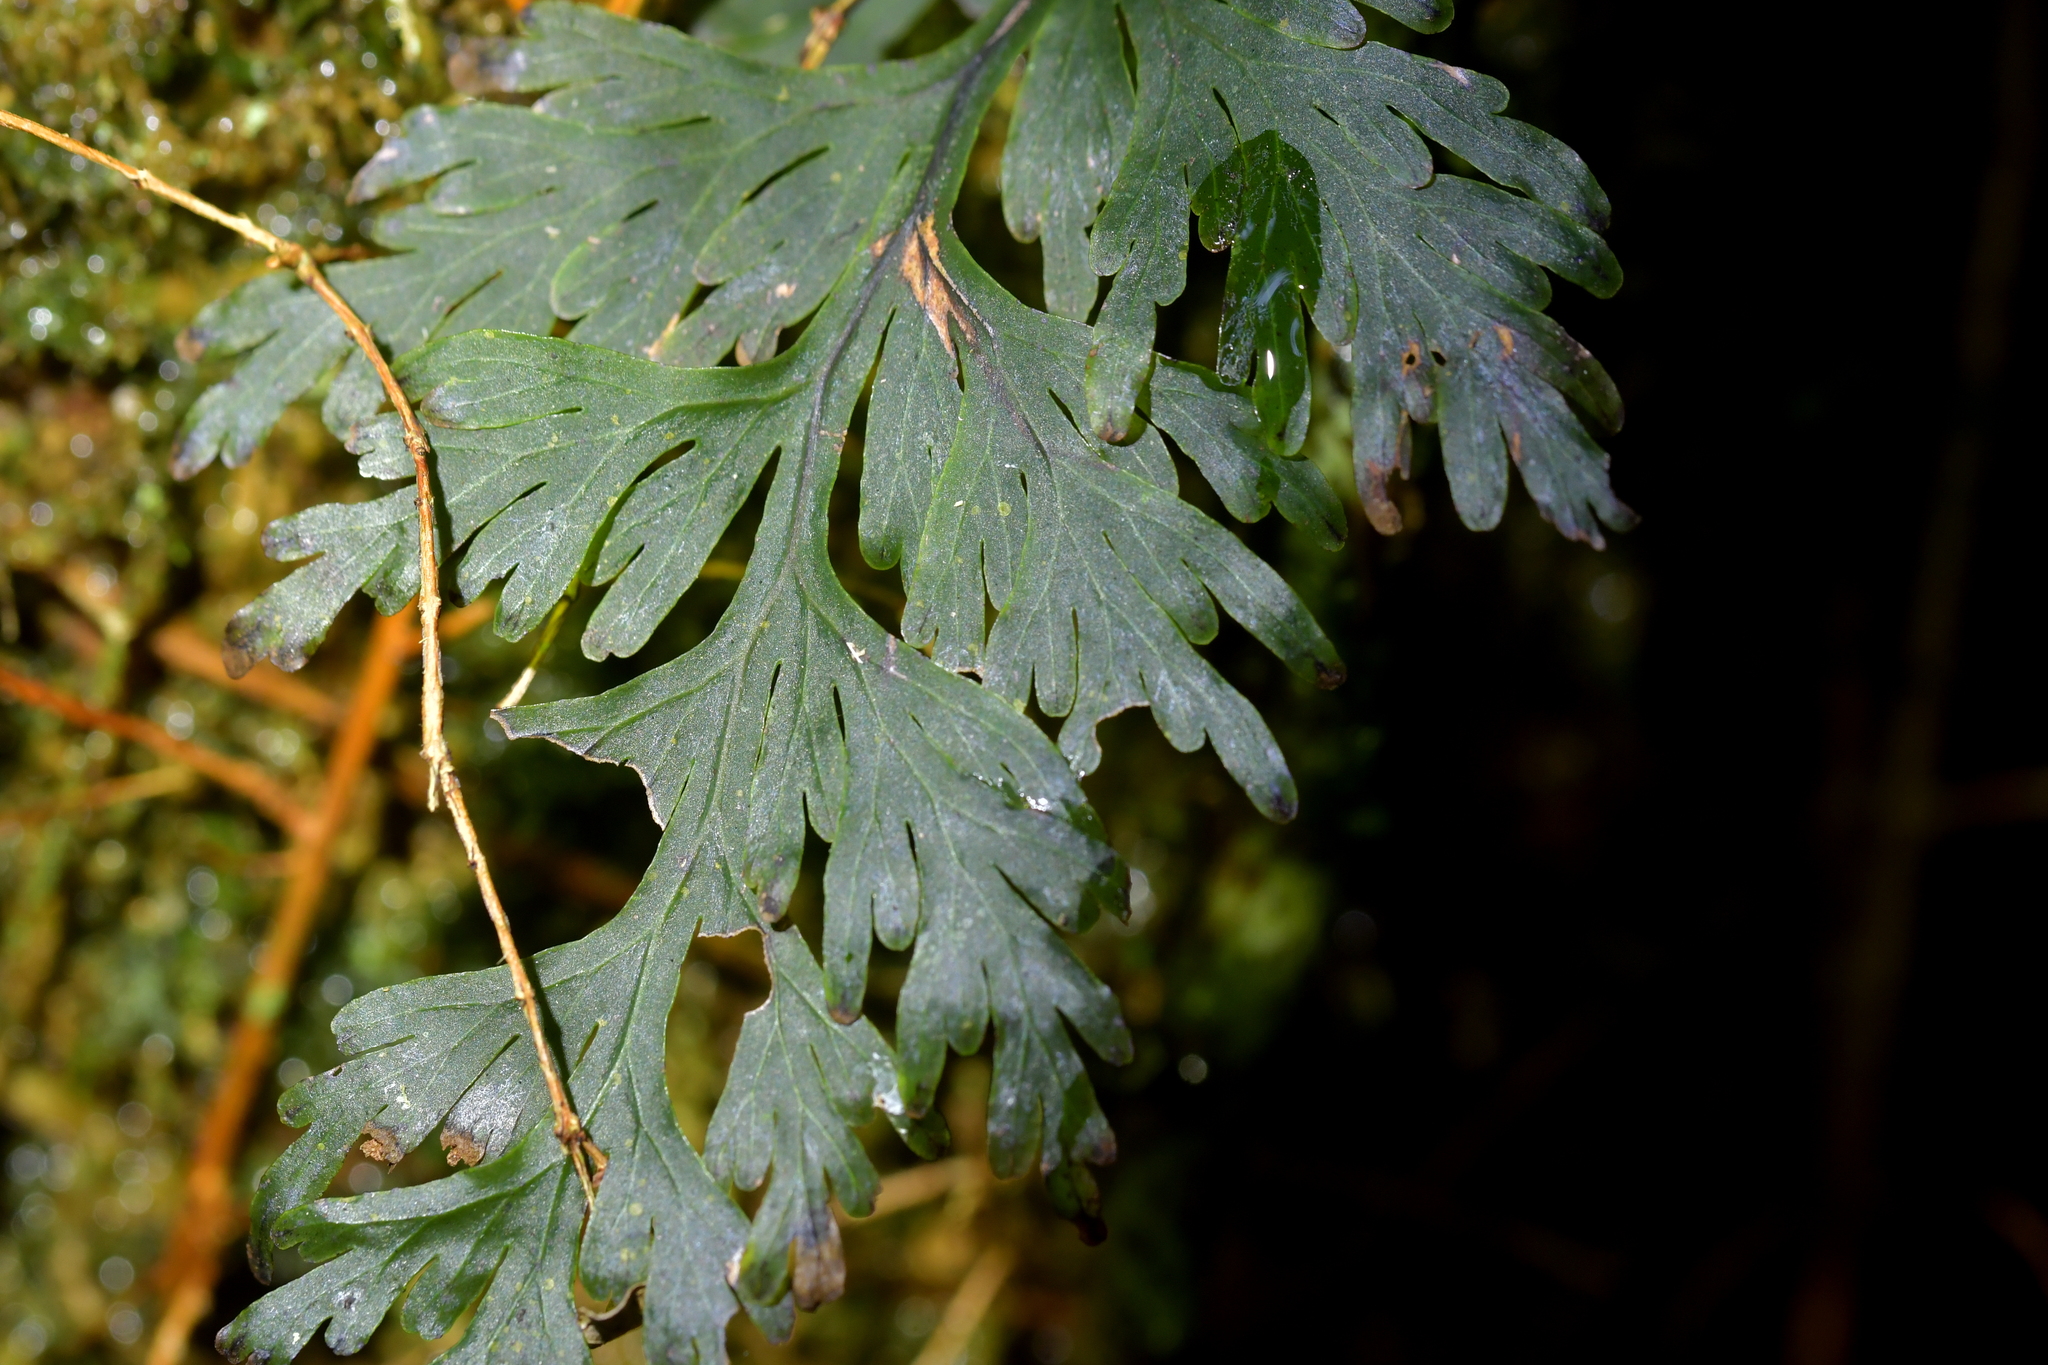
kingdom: Plantae
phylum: Tracheophyta
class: Polypodiopsida
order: Hymenophyllales
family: Hymenophyllaceae
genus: Hymenophyllum
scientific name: Hymenophyllum dilatatum
